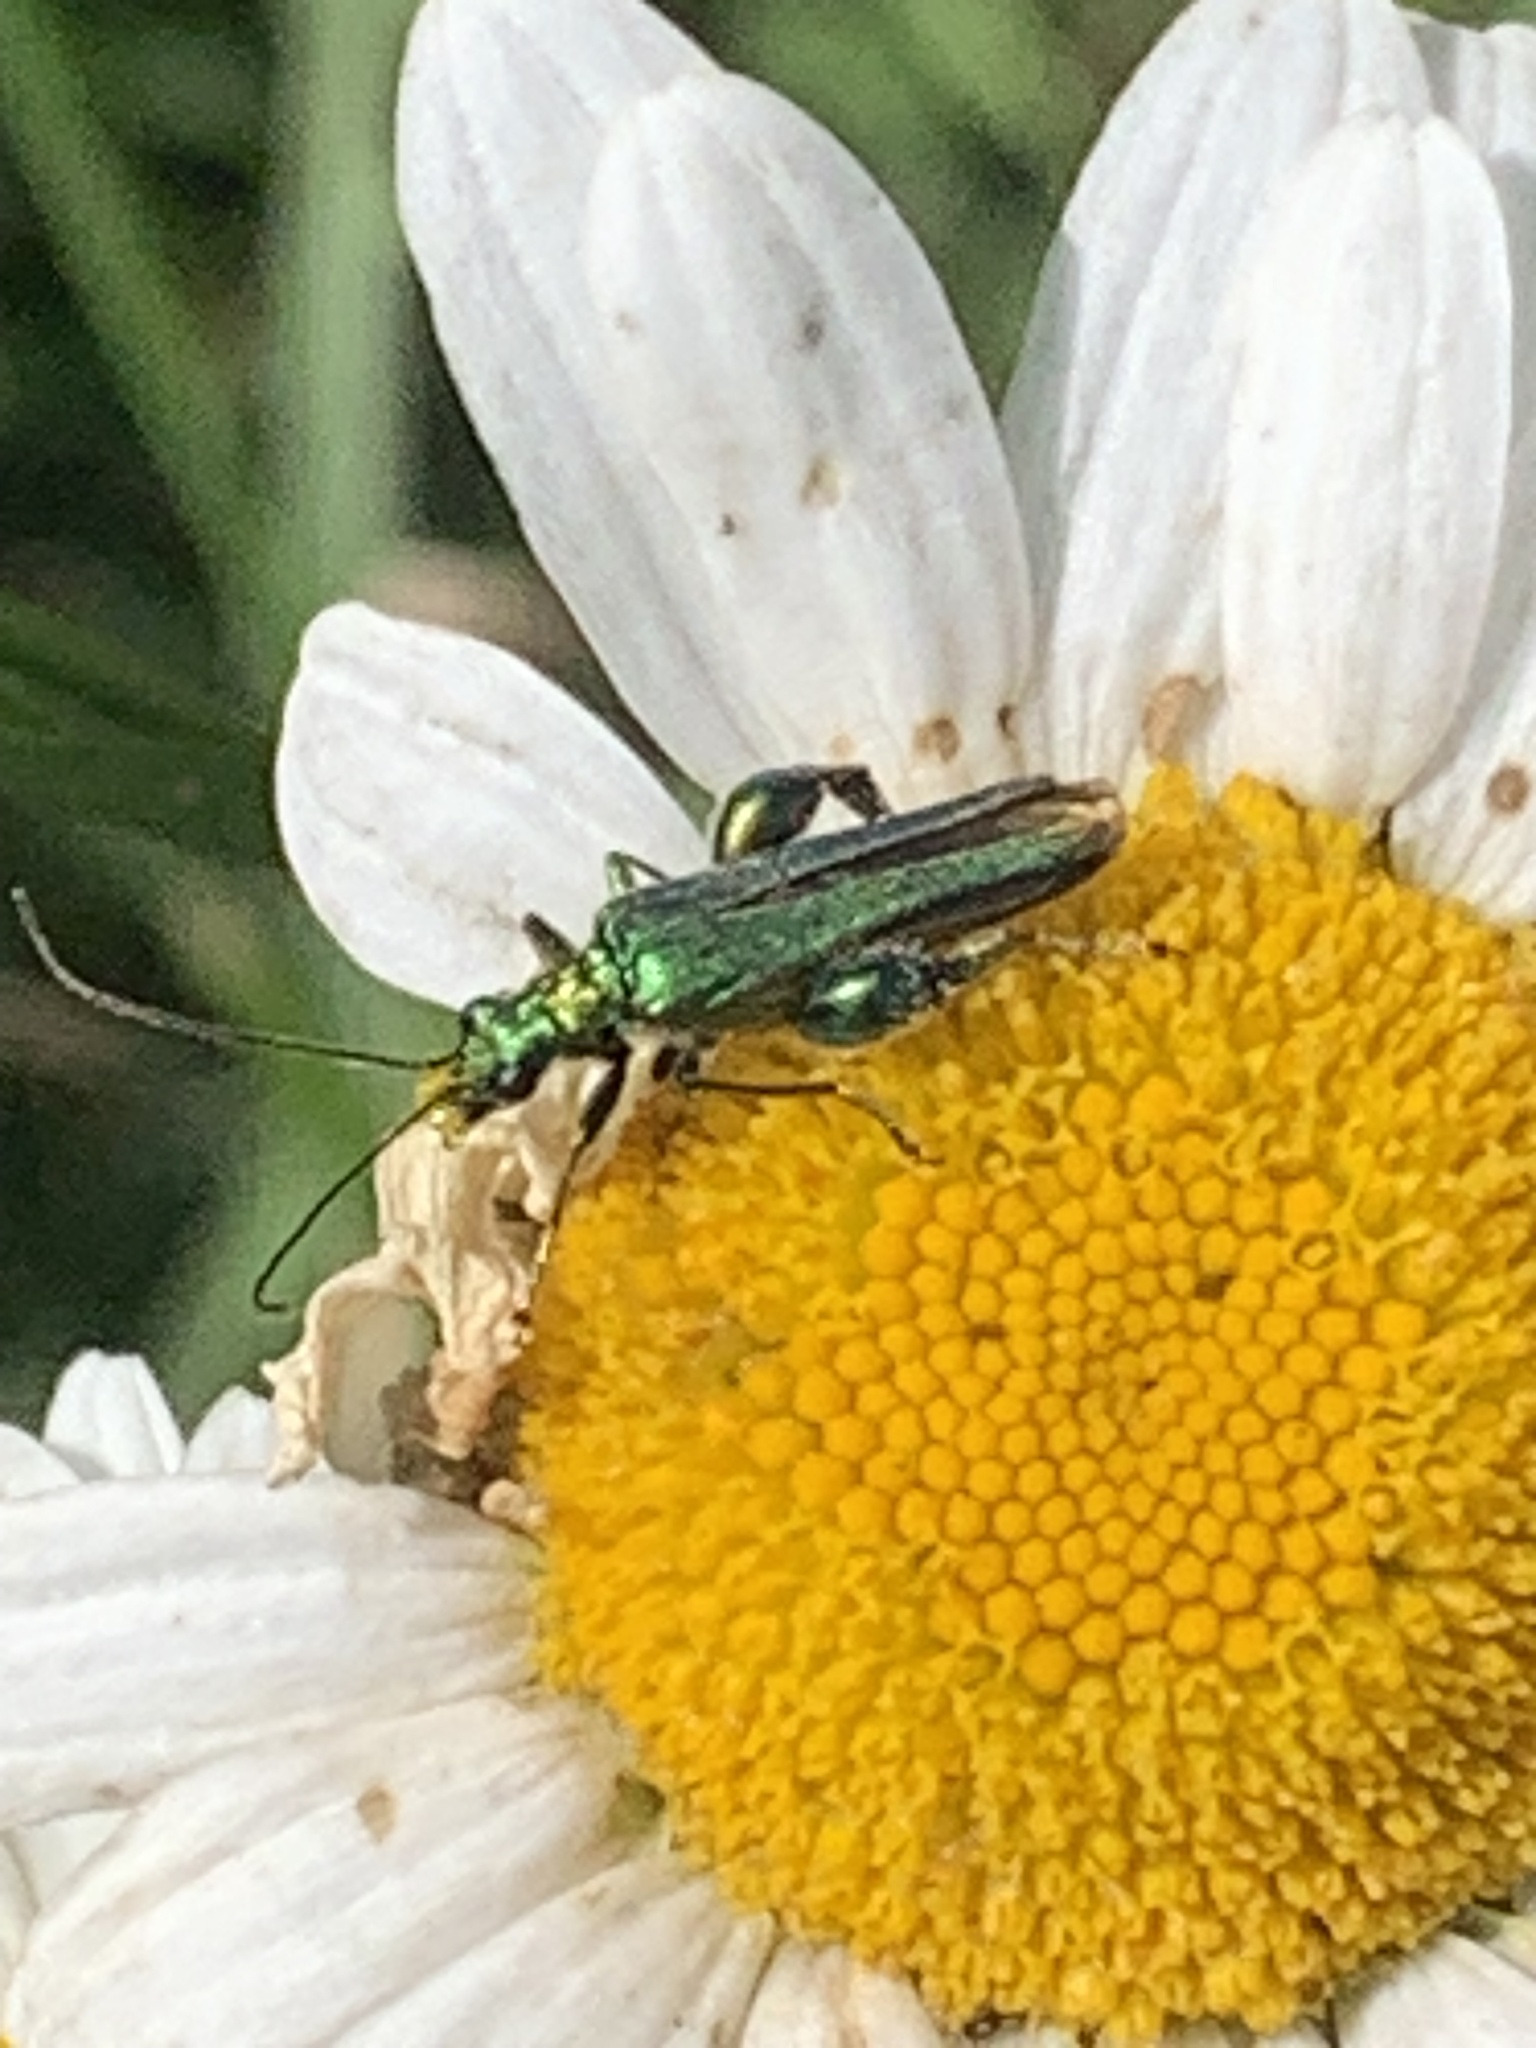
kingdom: Animalia
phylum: Arthropoda
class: Insecta
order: Coleoptera
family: Oedemeridae
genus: Oedemera
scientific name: Oedemera nobilis
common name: Swollen-thighed beetle
